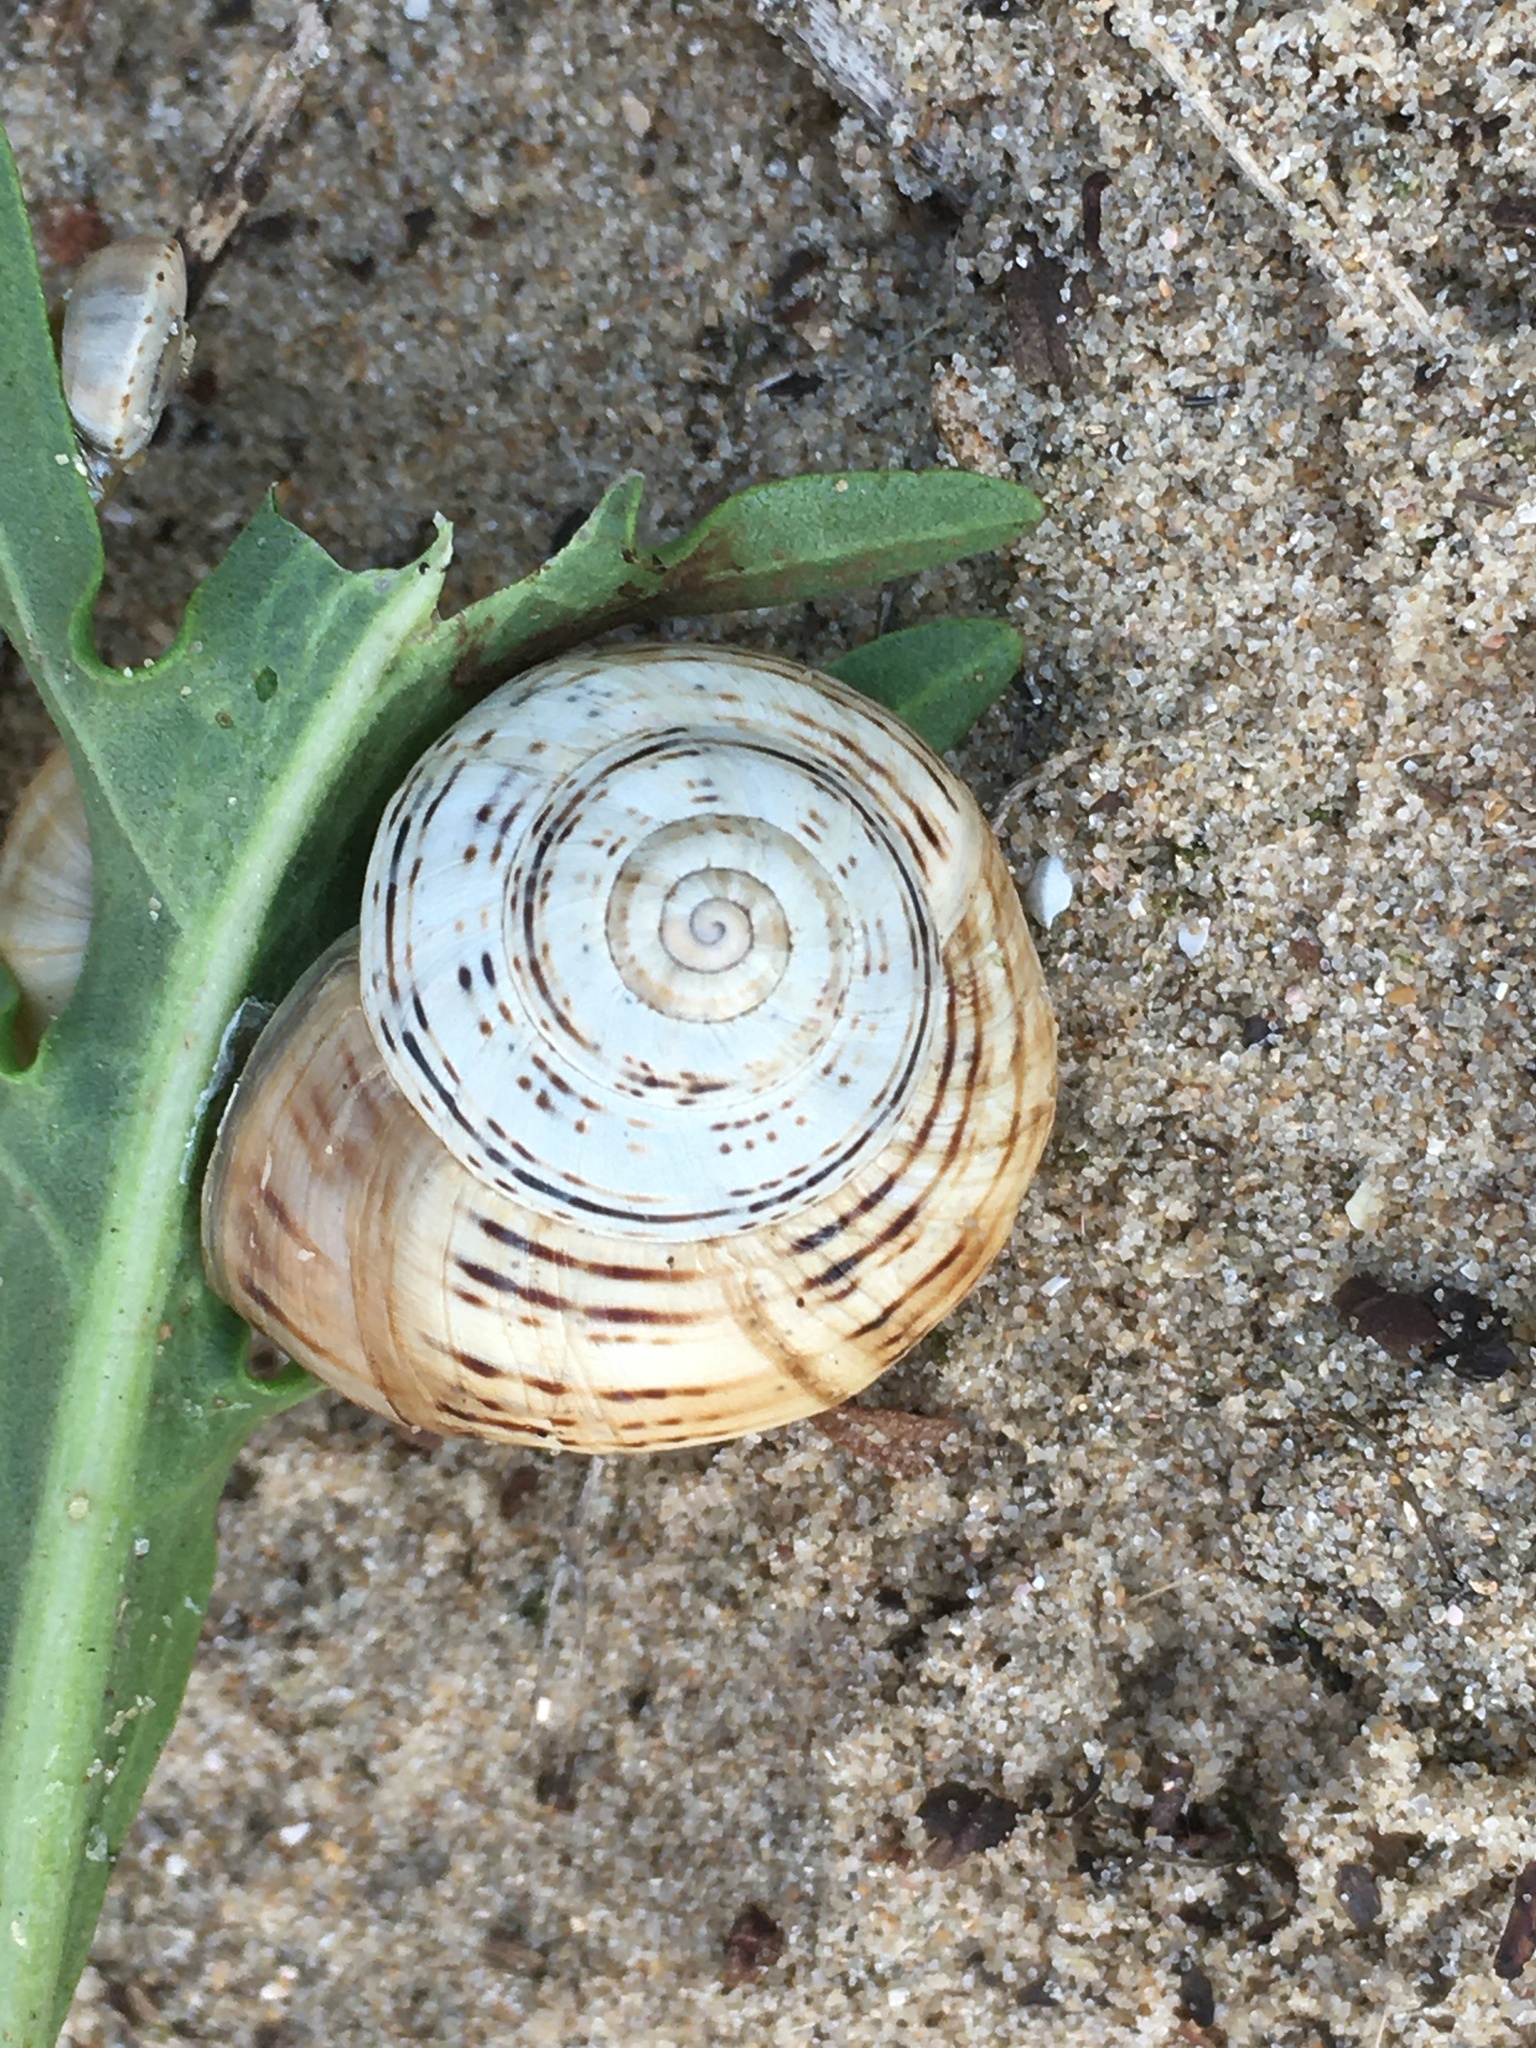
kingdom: Animalia
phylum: Mollusca
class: Gastropoda
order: Stylommatophora
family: Helicidae
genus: Theba
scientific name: Theba pisana
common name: White snail
